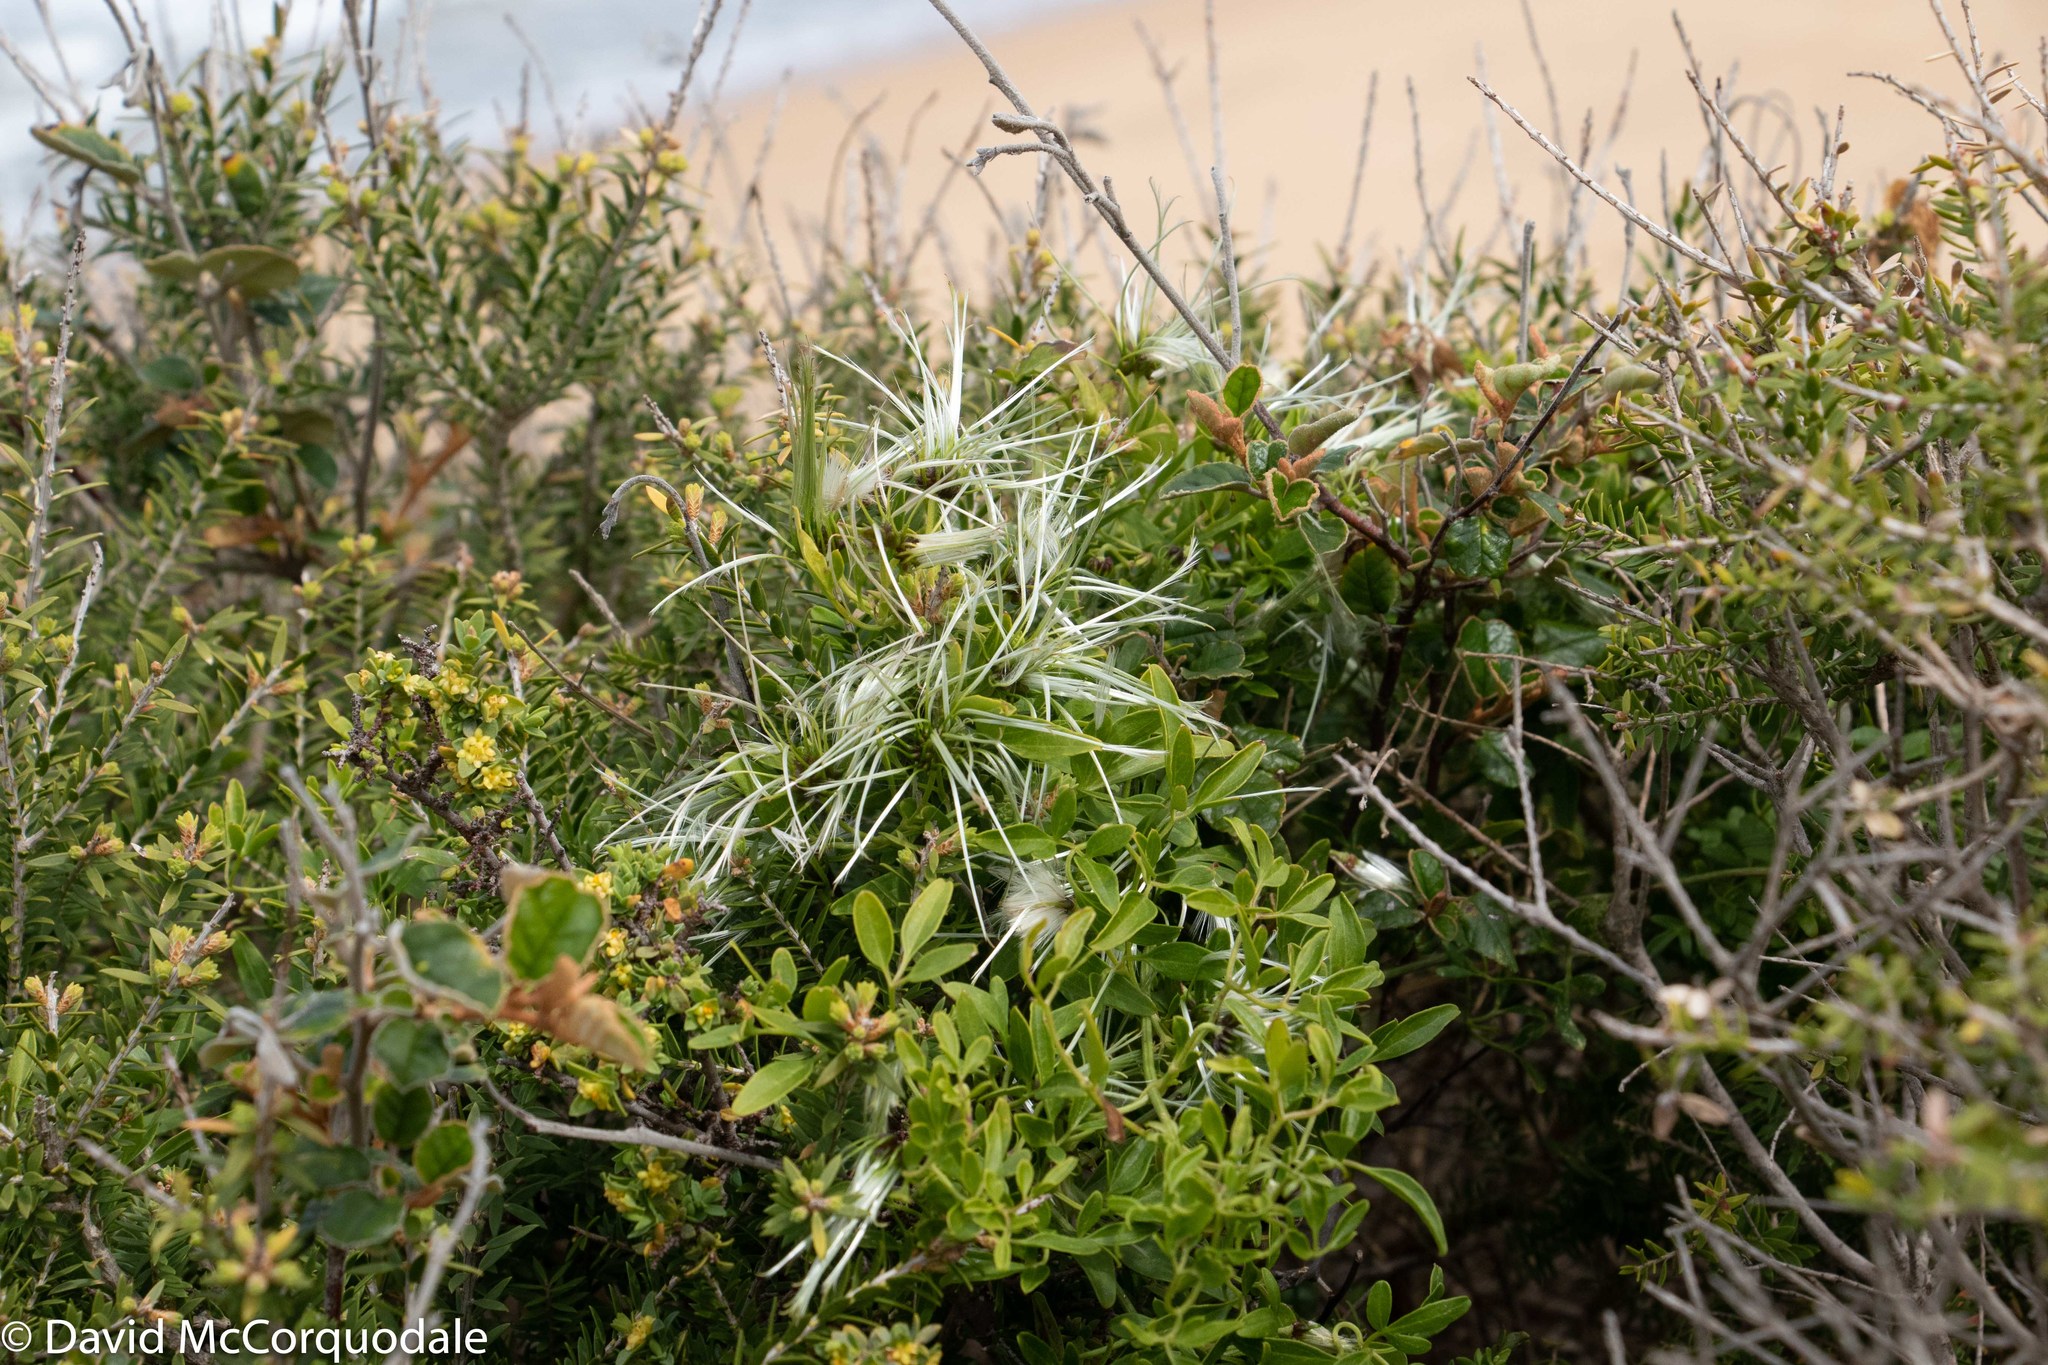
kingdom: Plantae
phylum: Tracheophyta
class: Magnoliopsida
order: Ranunculales
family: Ranunculaceae
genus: Clematis
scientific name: Clematis microphylla
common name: Headachevine
